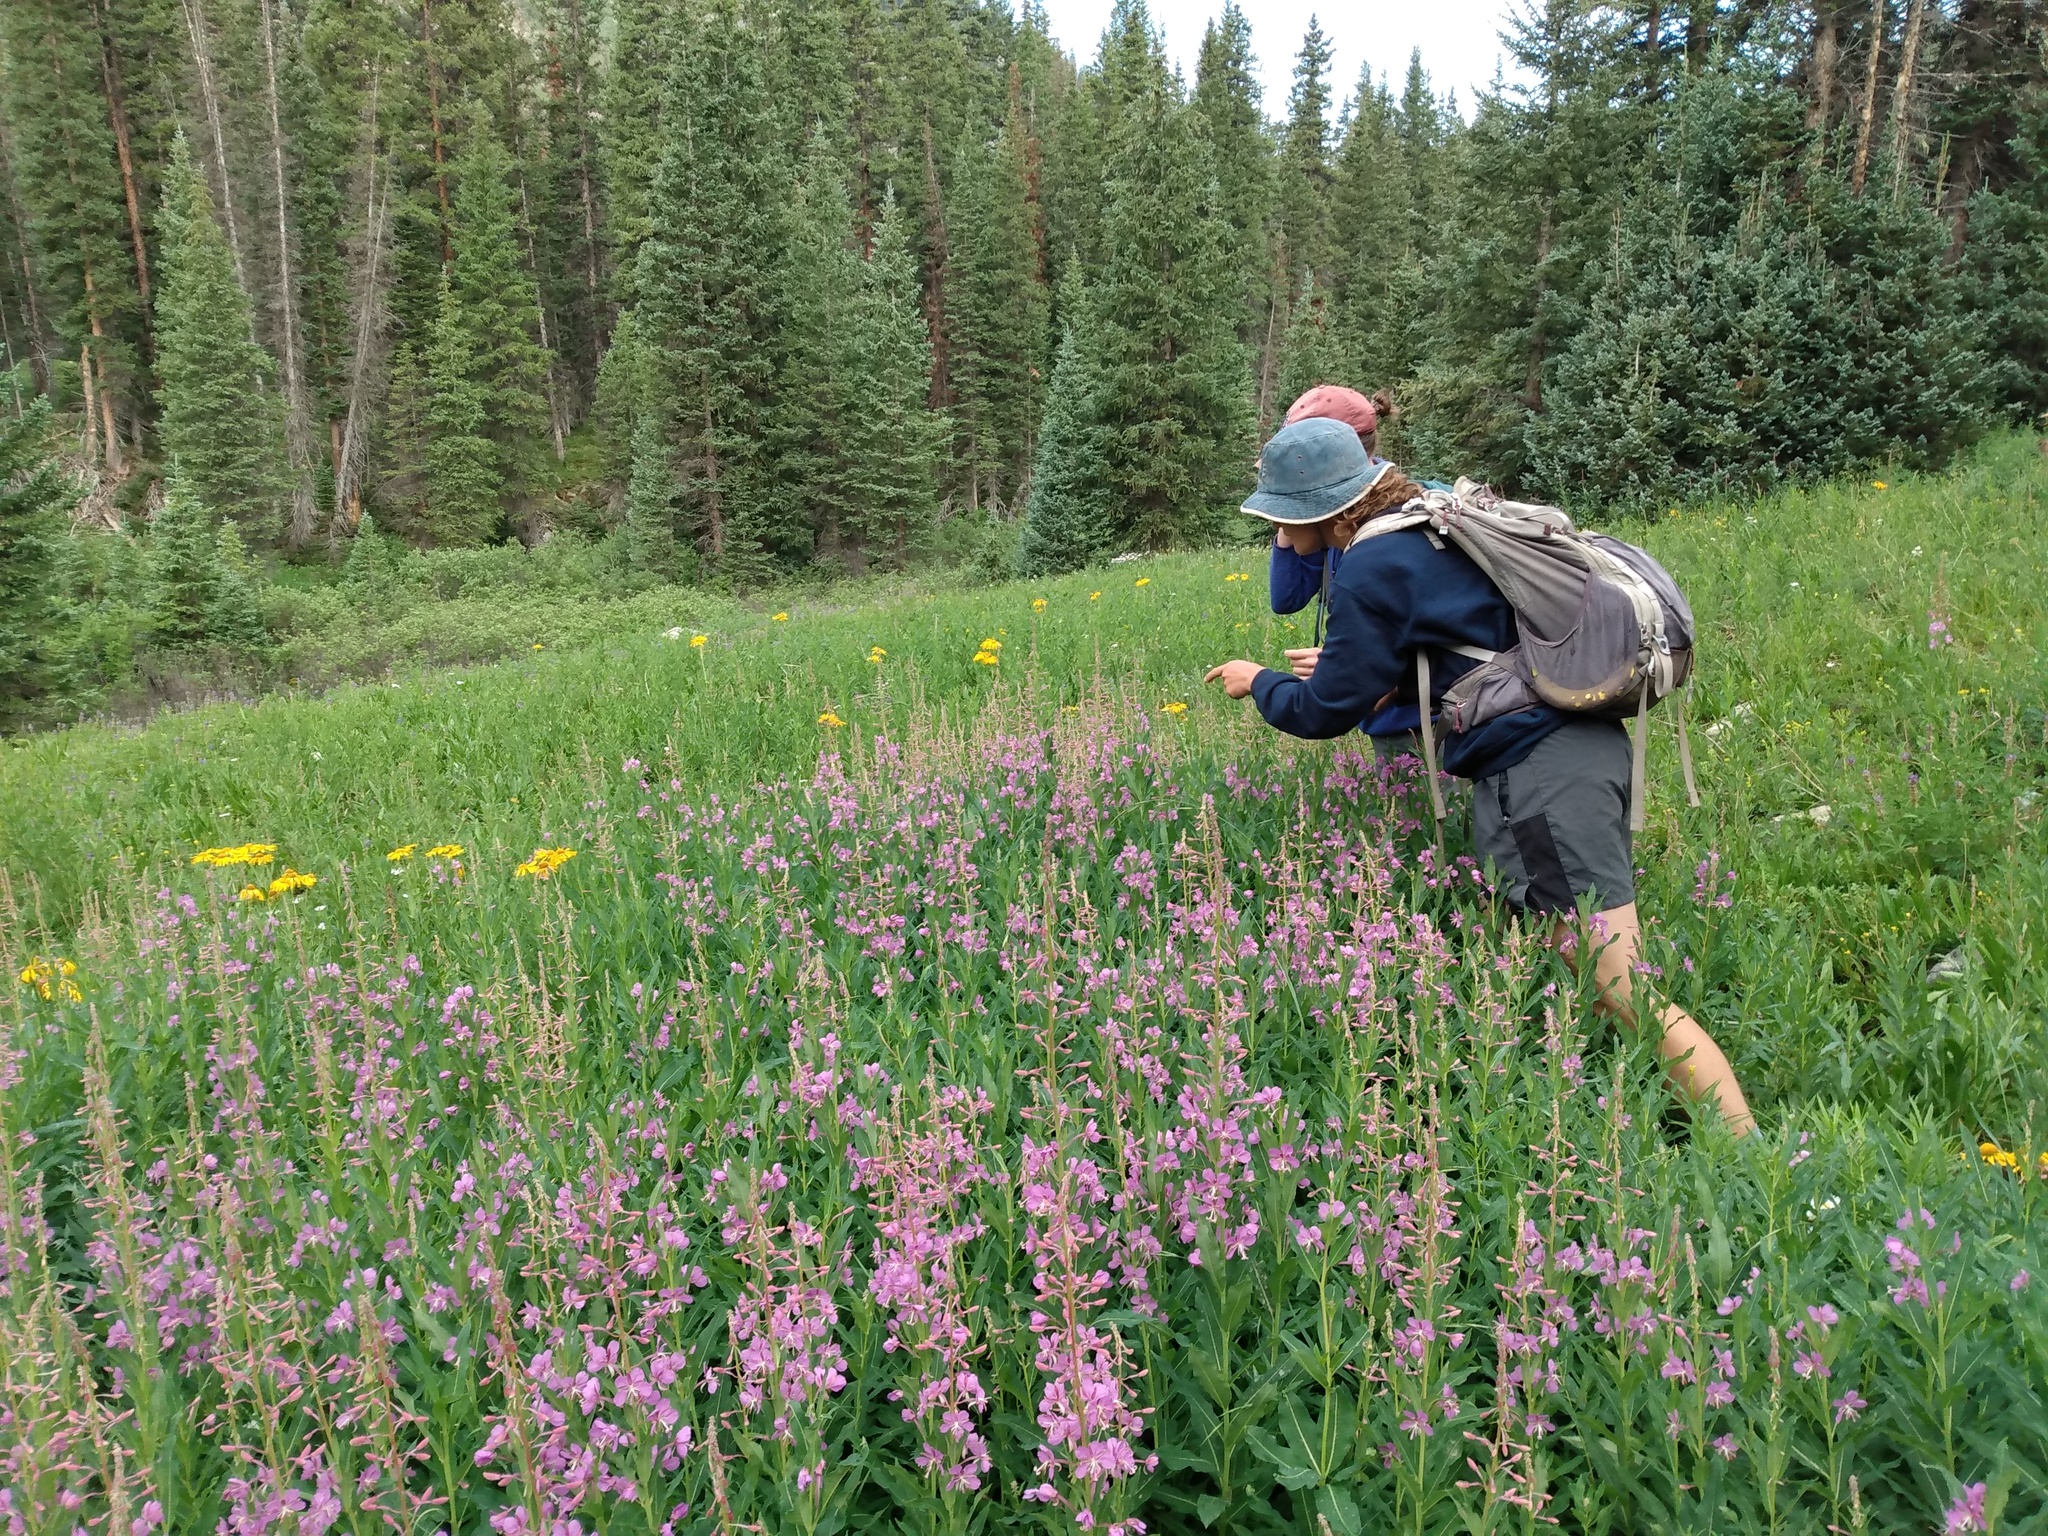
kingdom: Plantae
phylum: Tracheophyta
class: Magnoliopsida
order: Myrtales
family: Onagraceae
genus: Chamaenerion
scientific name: Chamaenerion angustifolium
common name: Fireweed
